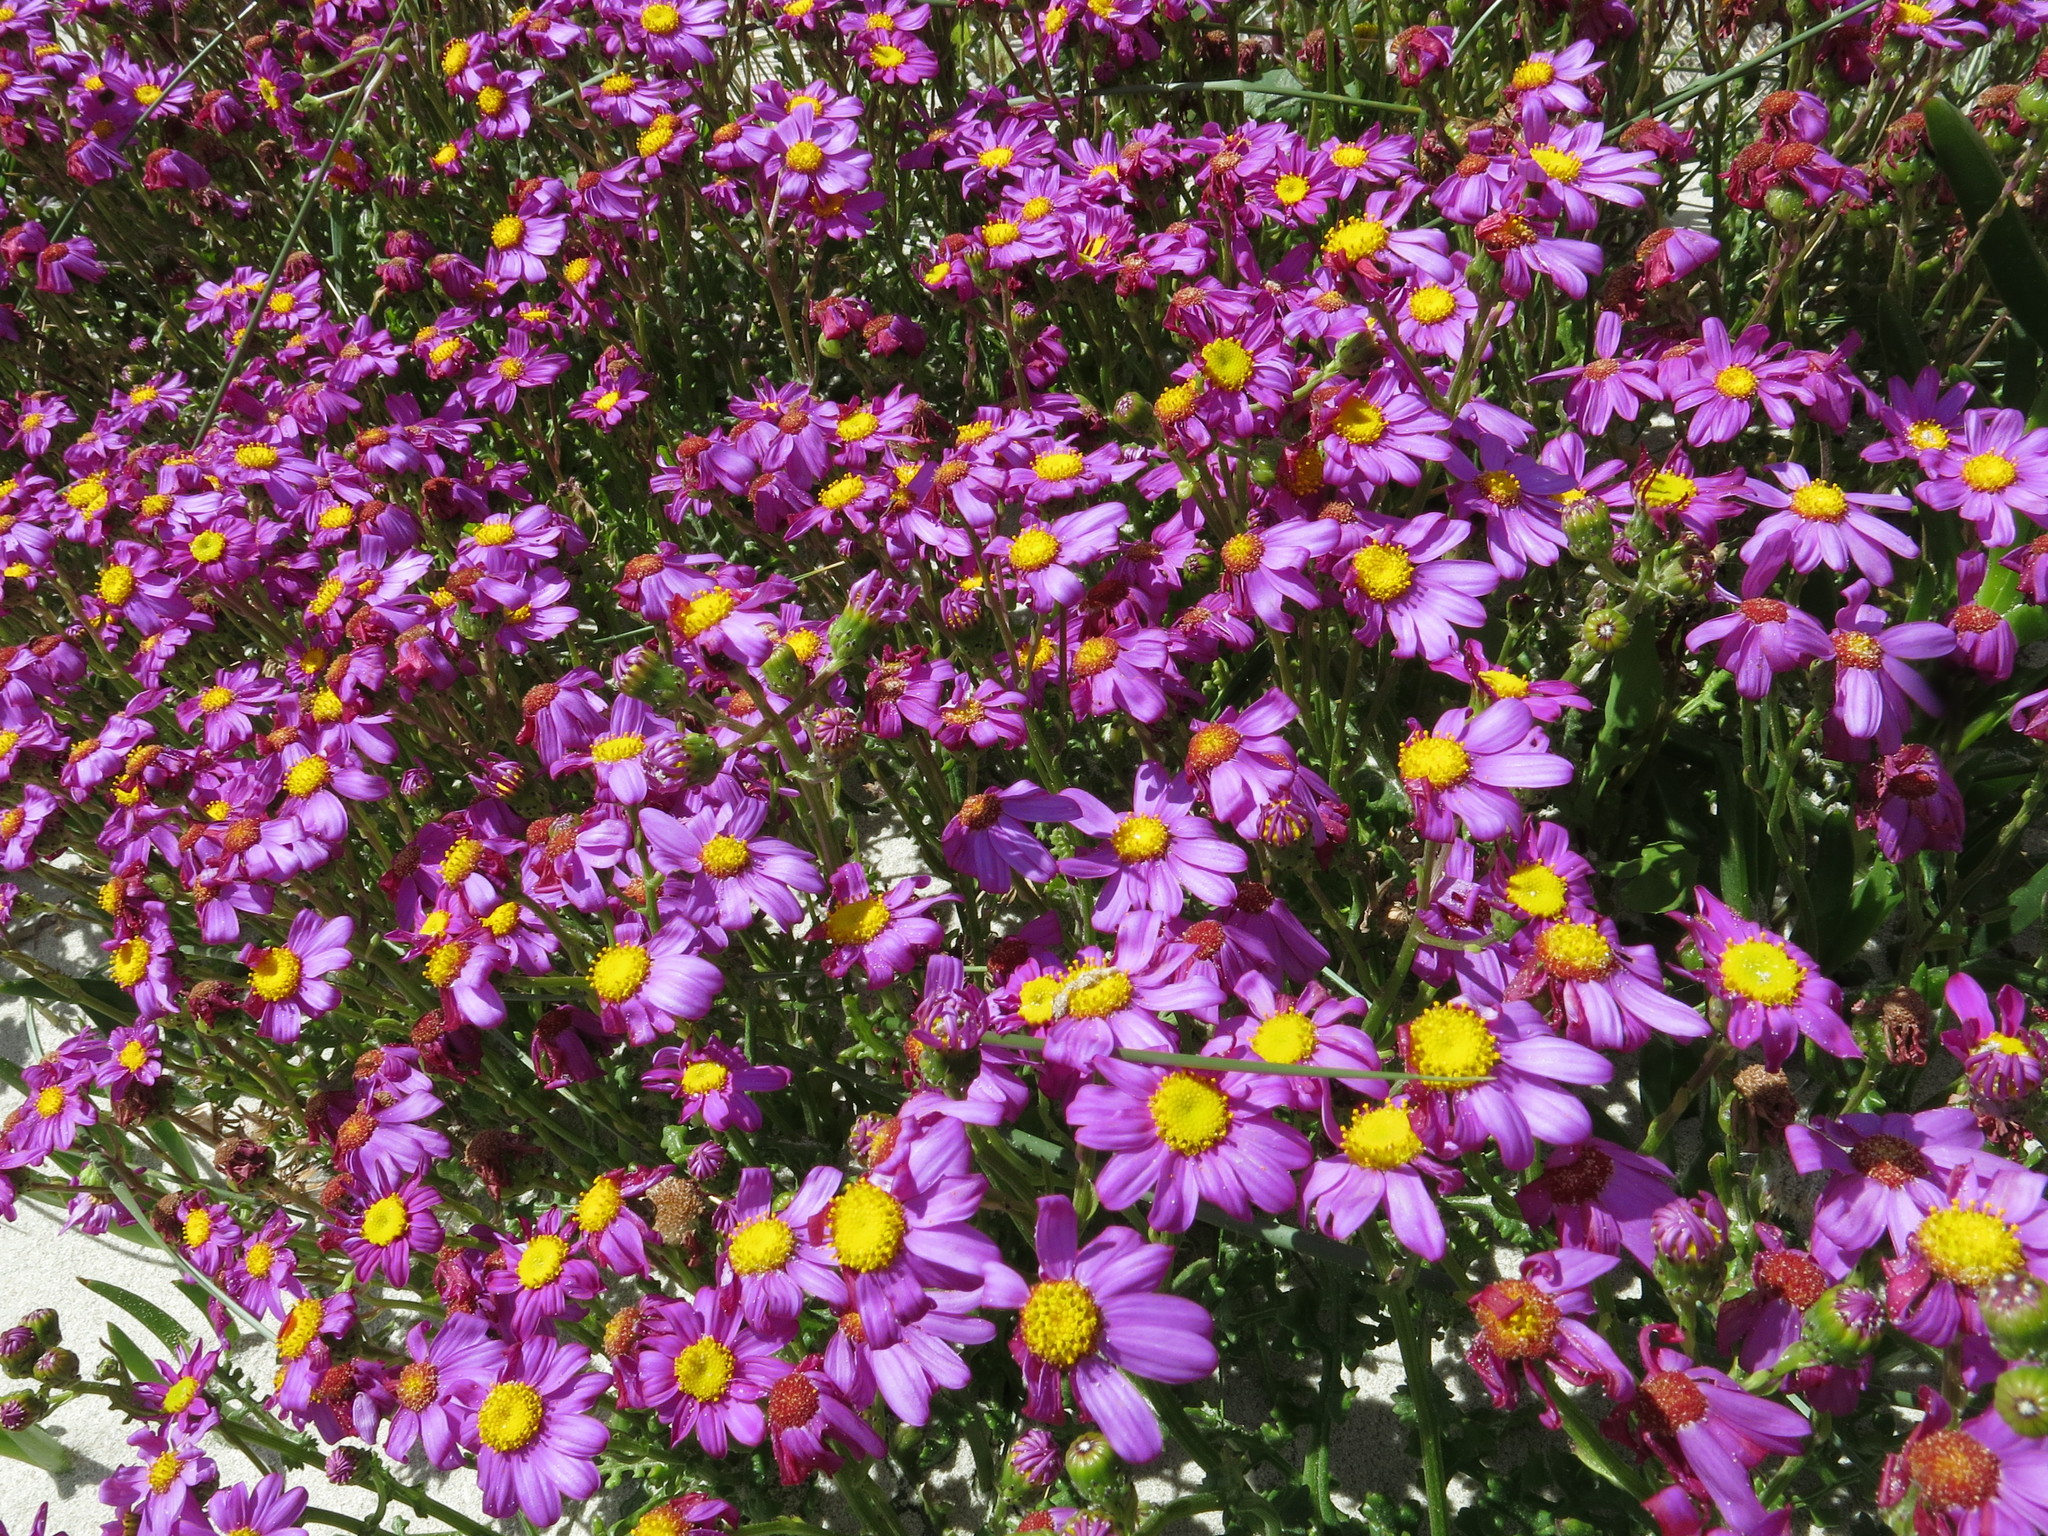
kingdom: Plantae
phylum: Tracheophyta
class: Magnoliopsida
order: Asterales
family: Asteraceae
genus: Senecio
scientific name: Senecio elegans
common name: Purple groundsel
